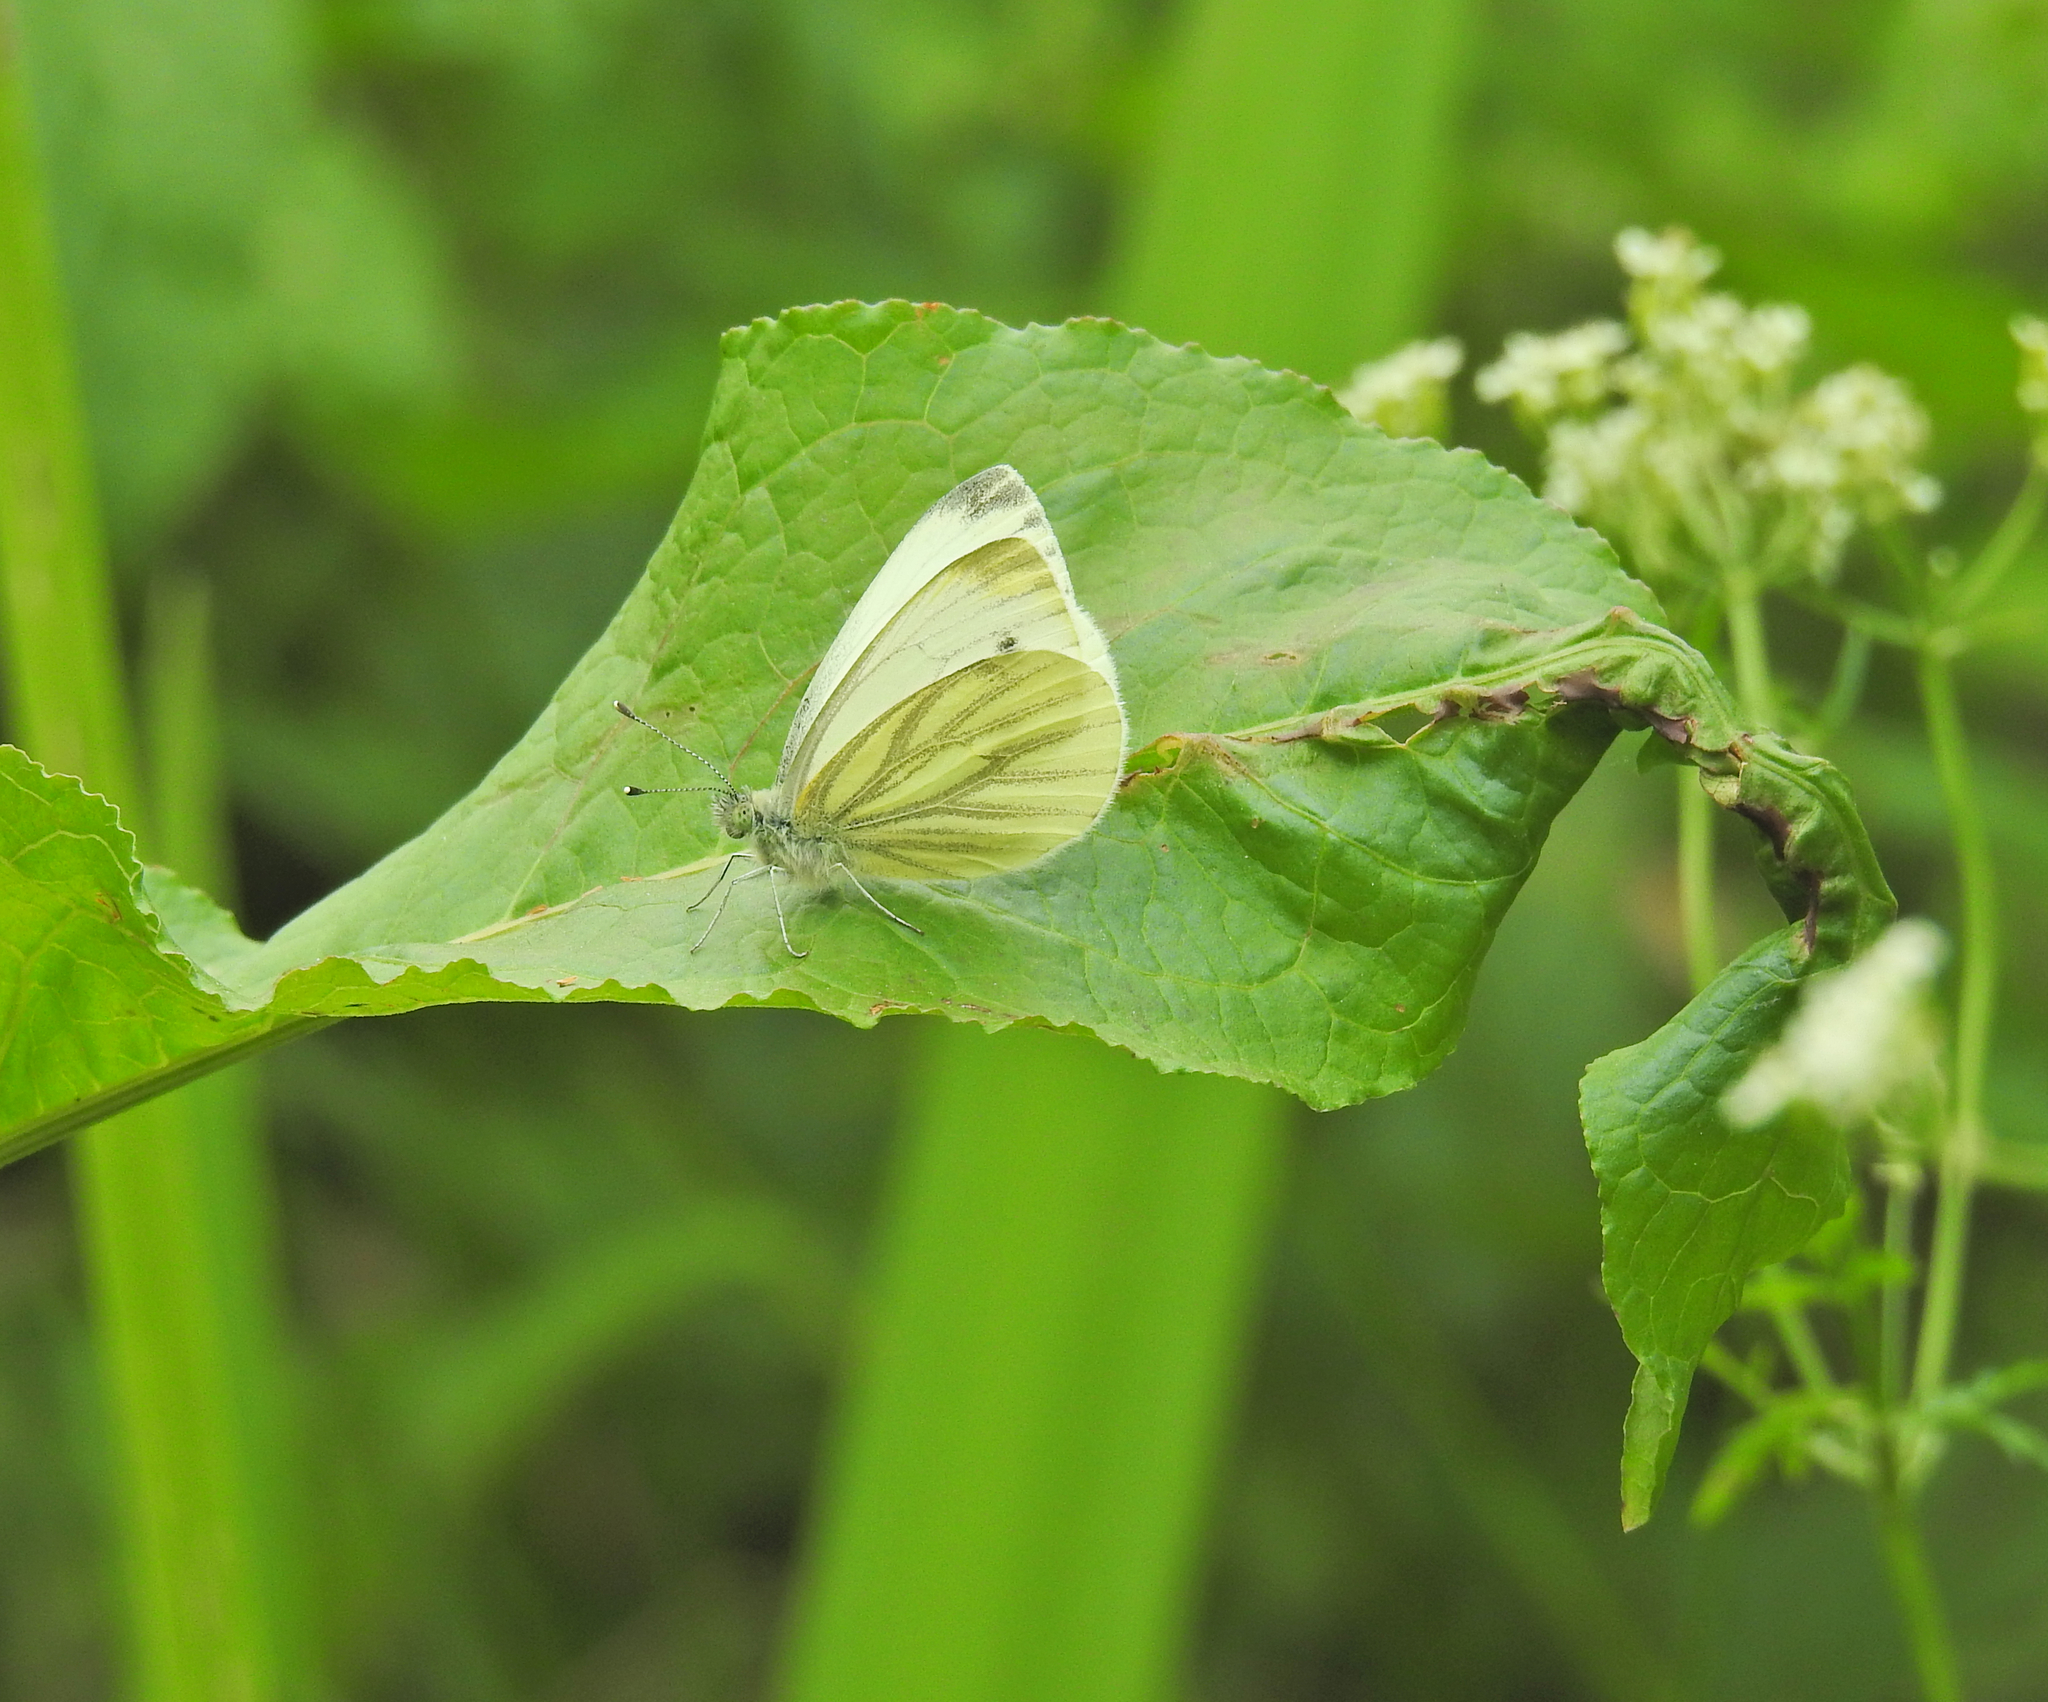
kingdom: Animalia
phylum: Arthropoda
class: Insecta
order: Lepidoptera
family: Pieridae
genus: Pieris
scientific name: Pieris napi
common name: Green-veined white
